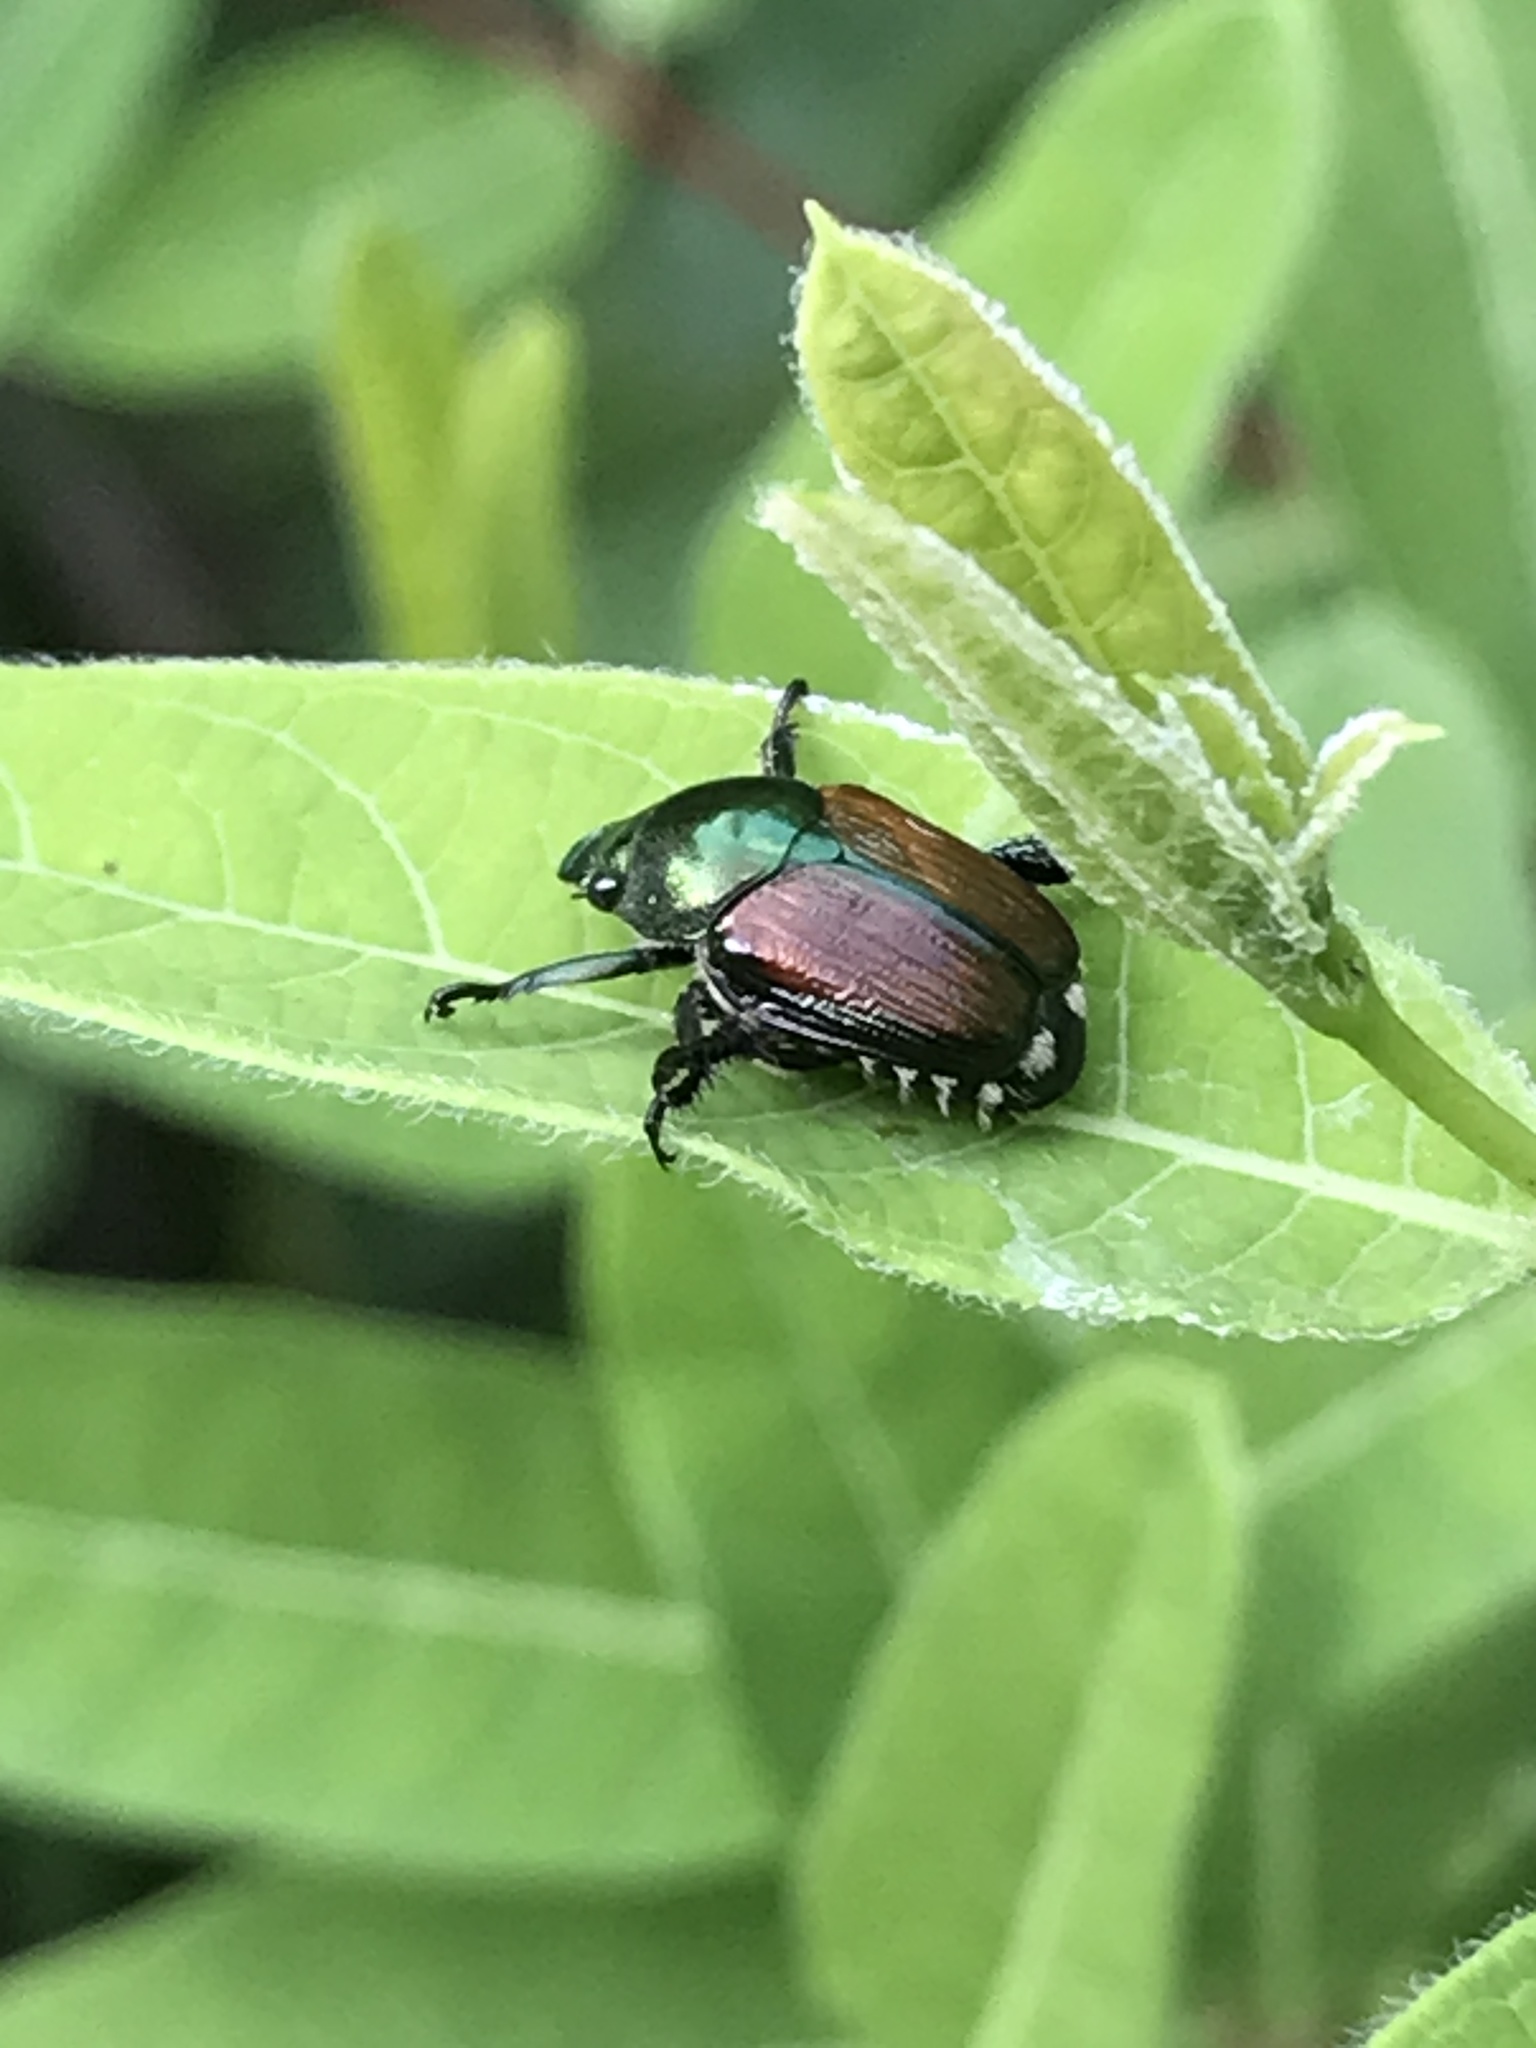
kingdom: Animalia
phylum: Arthropoda
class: Insecta
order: Coleoptera
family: Scarabaeidae
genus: Popillia
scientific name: Popillia japonica
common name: Japanese beetle
